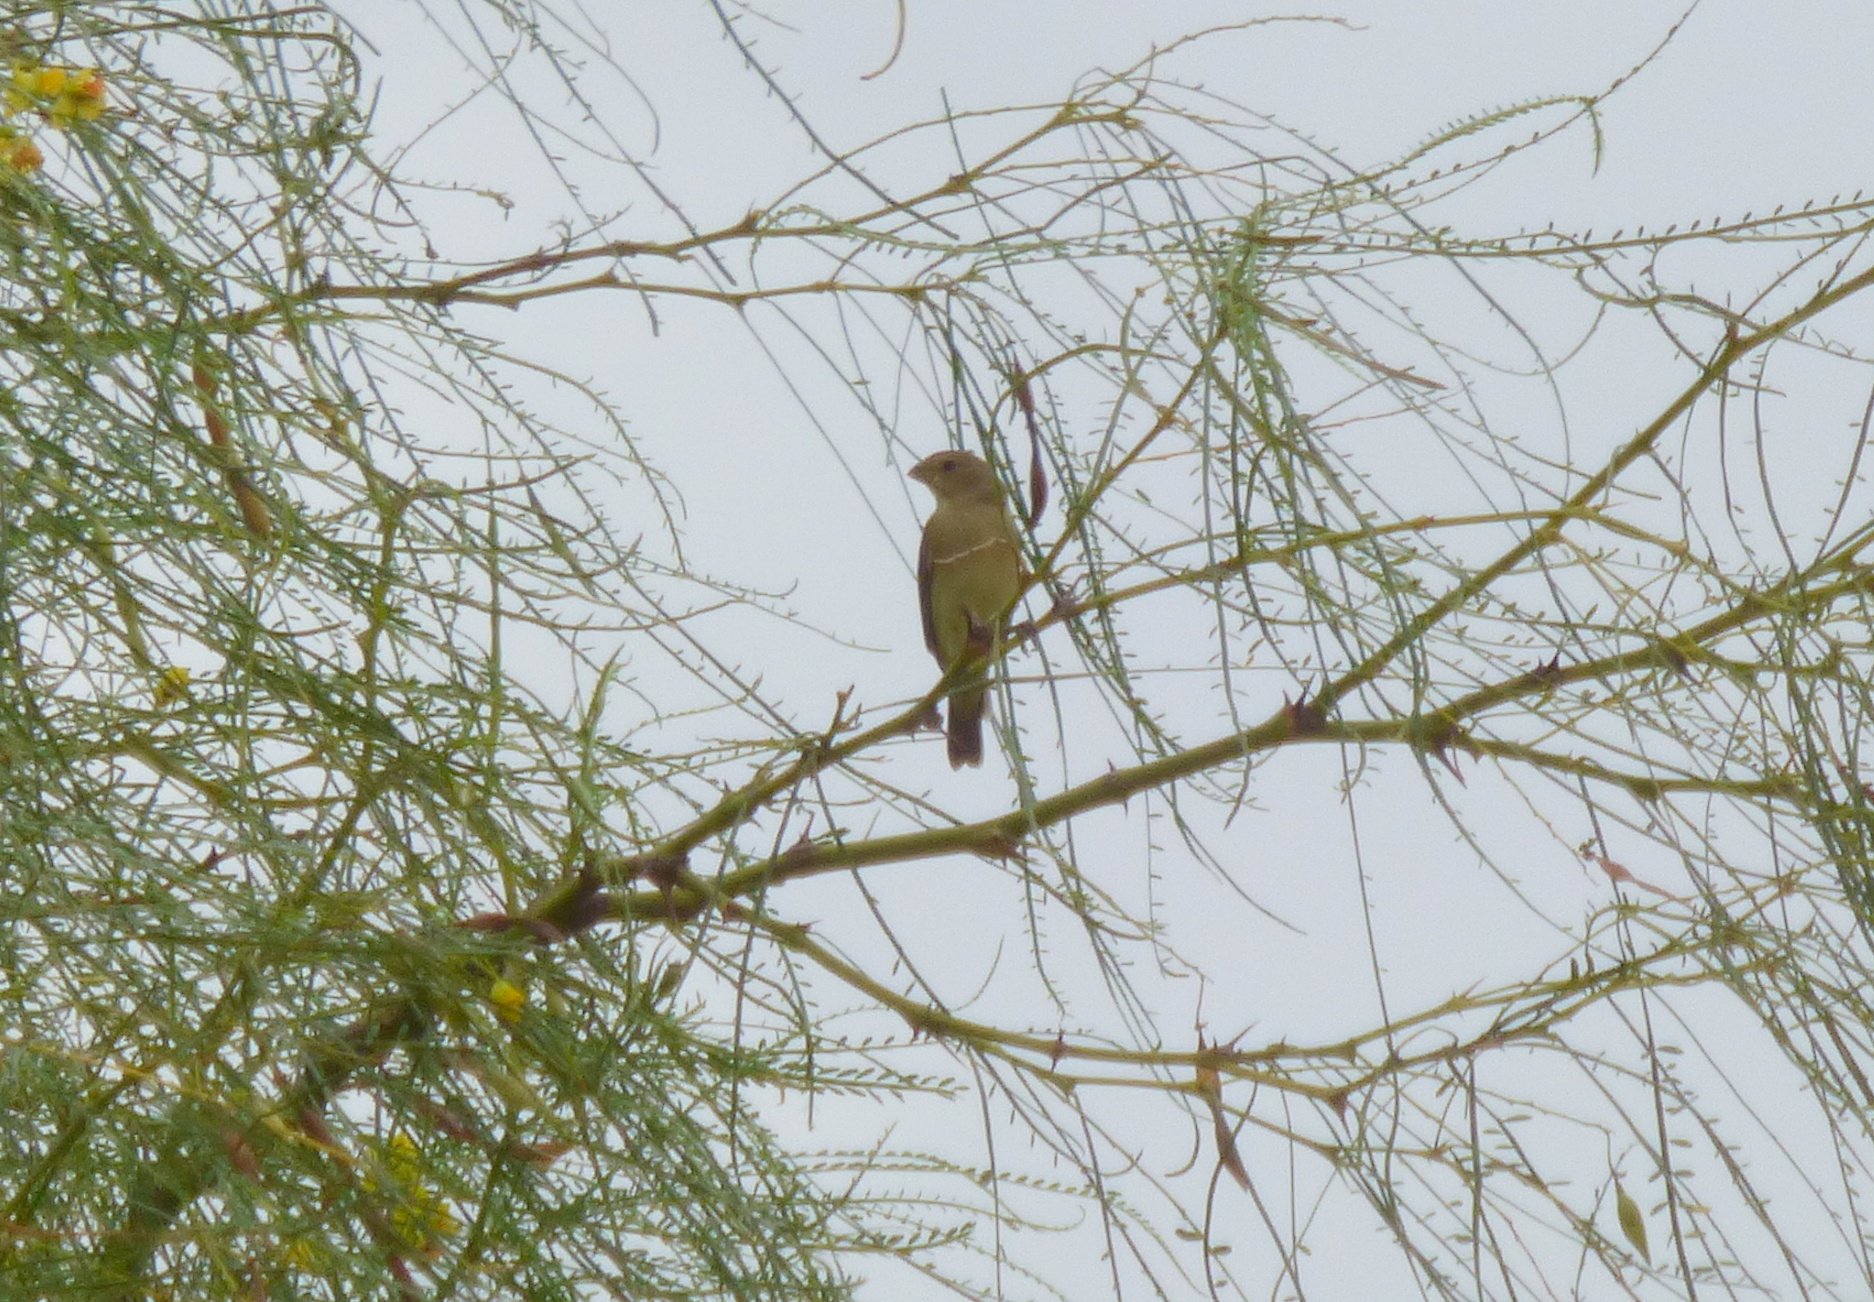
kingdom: Animalia
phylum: Chordata
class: Aves
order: Passeriformes
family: Thraupidae
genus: Sporophila
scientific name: Sporophila caerulescens
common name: Double-collared seedeater
